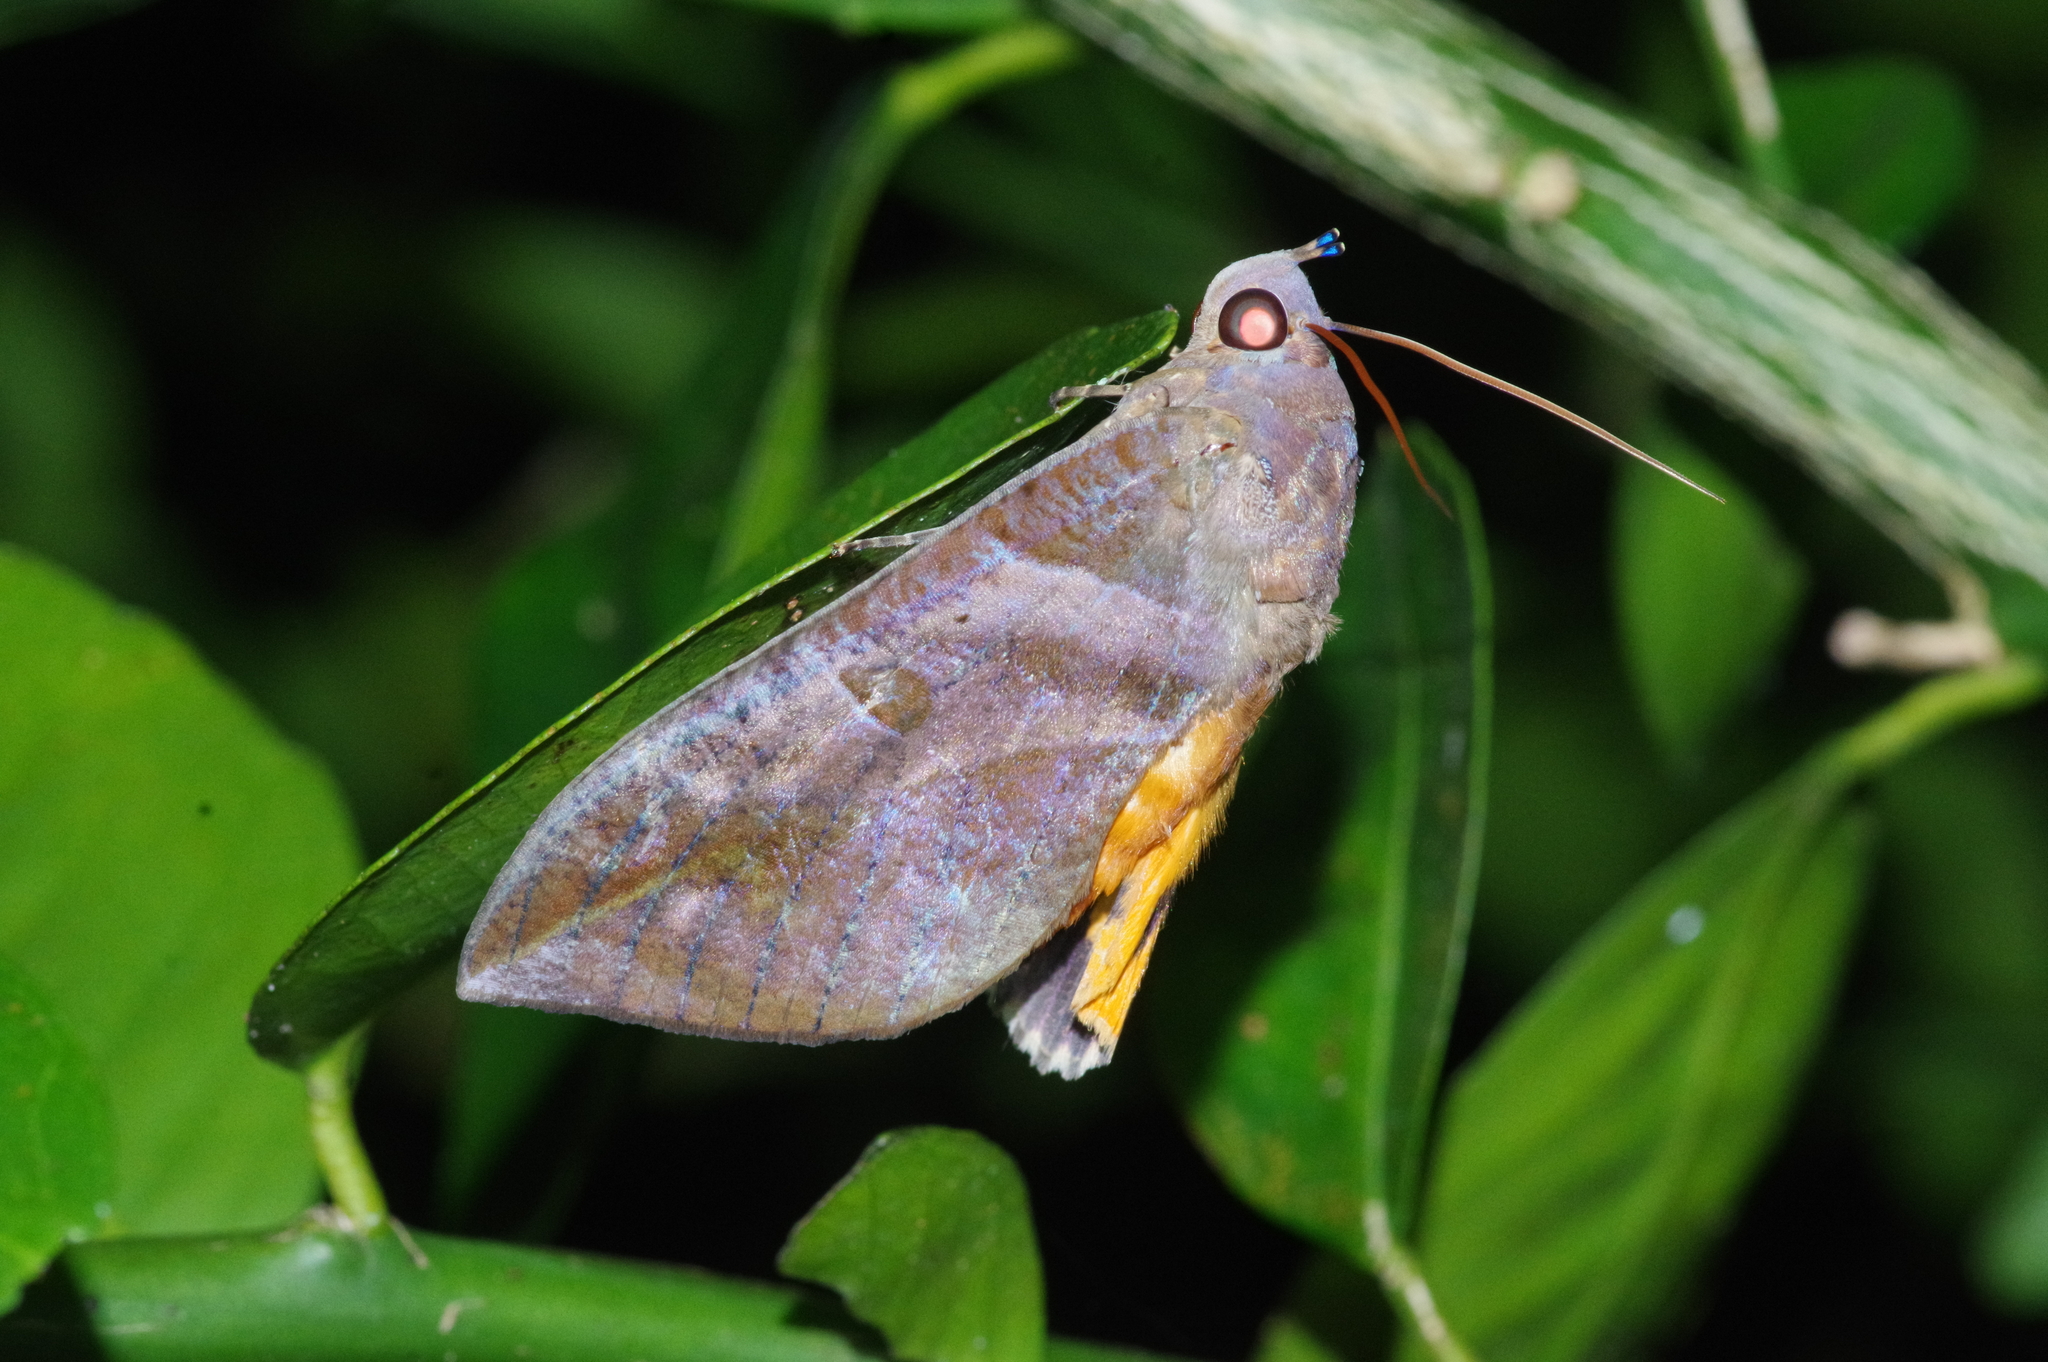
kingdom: Animalia
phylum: Arthropoda
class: Insecta
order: Lepidoptera
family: Erebidae
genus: Eudocima
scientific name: Eudocima phalonia
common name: Wasp
